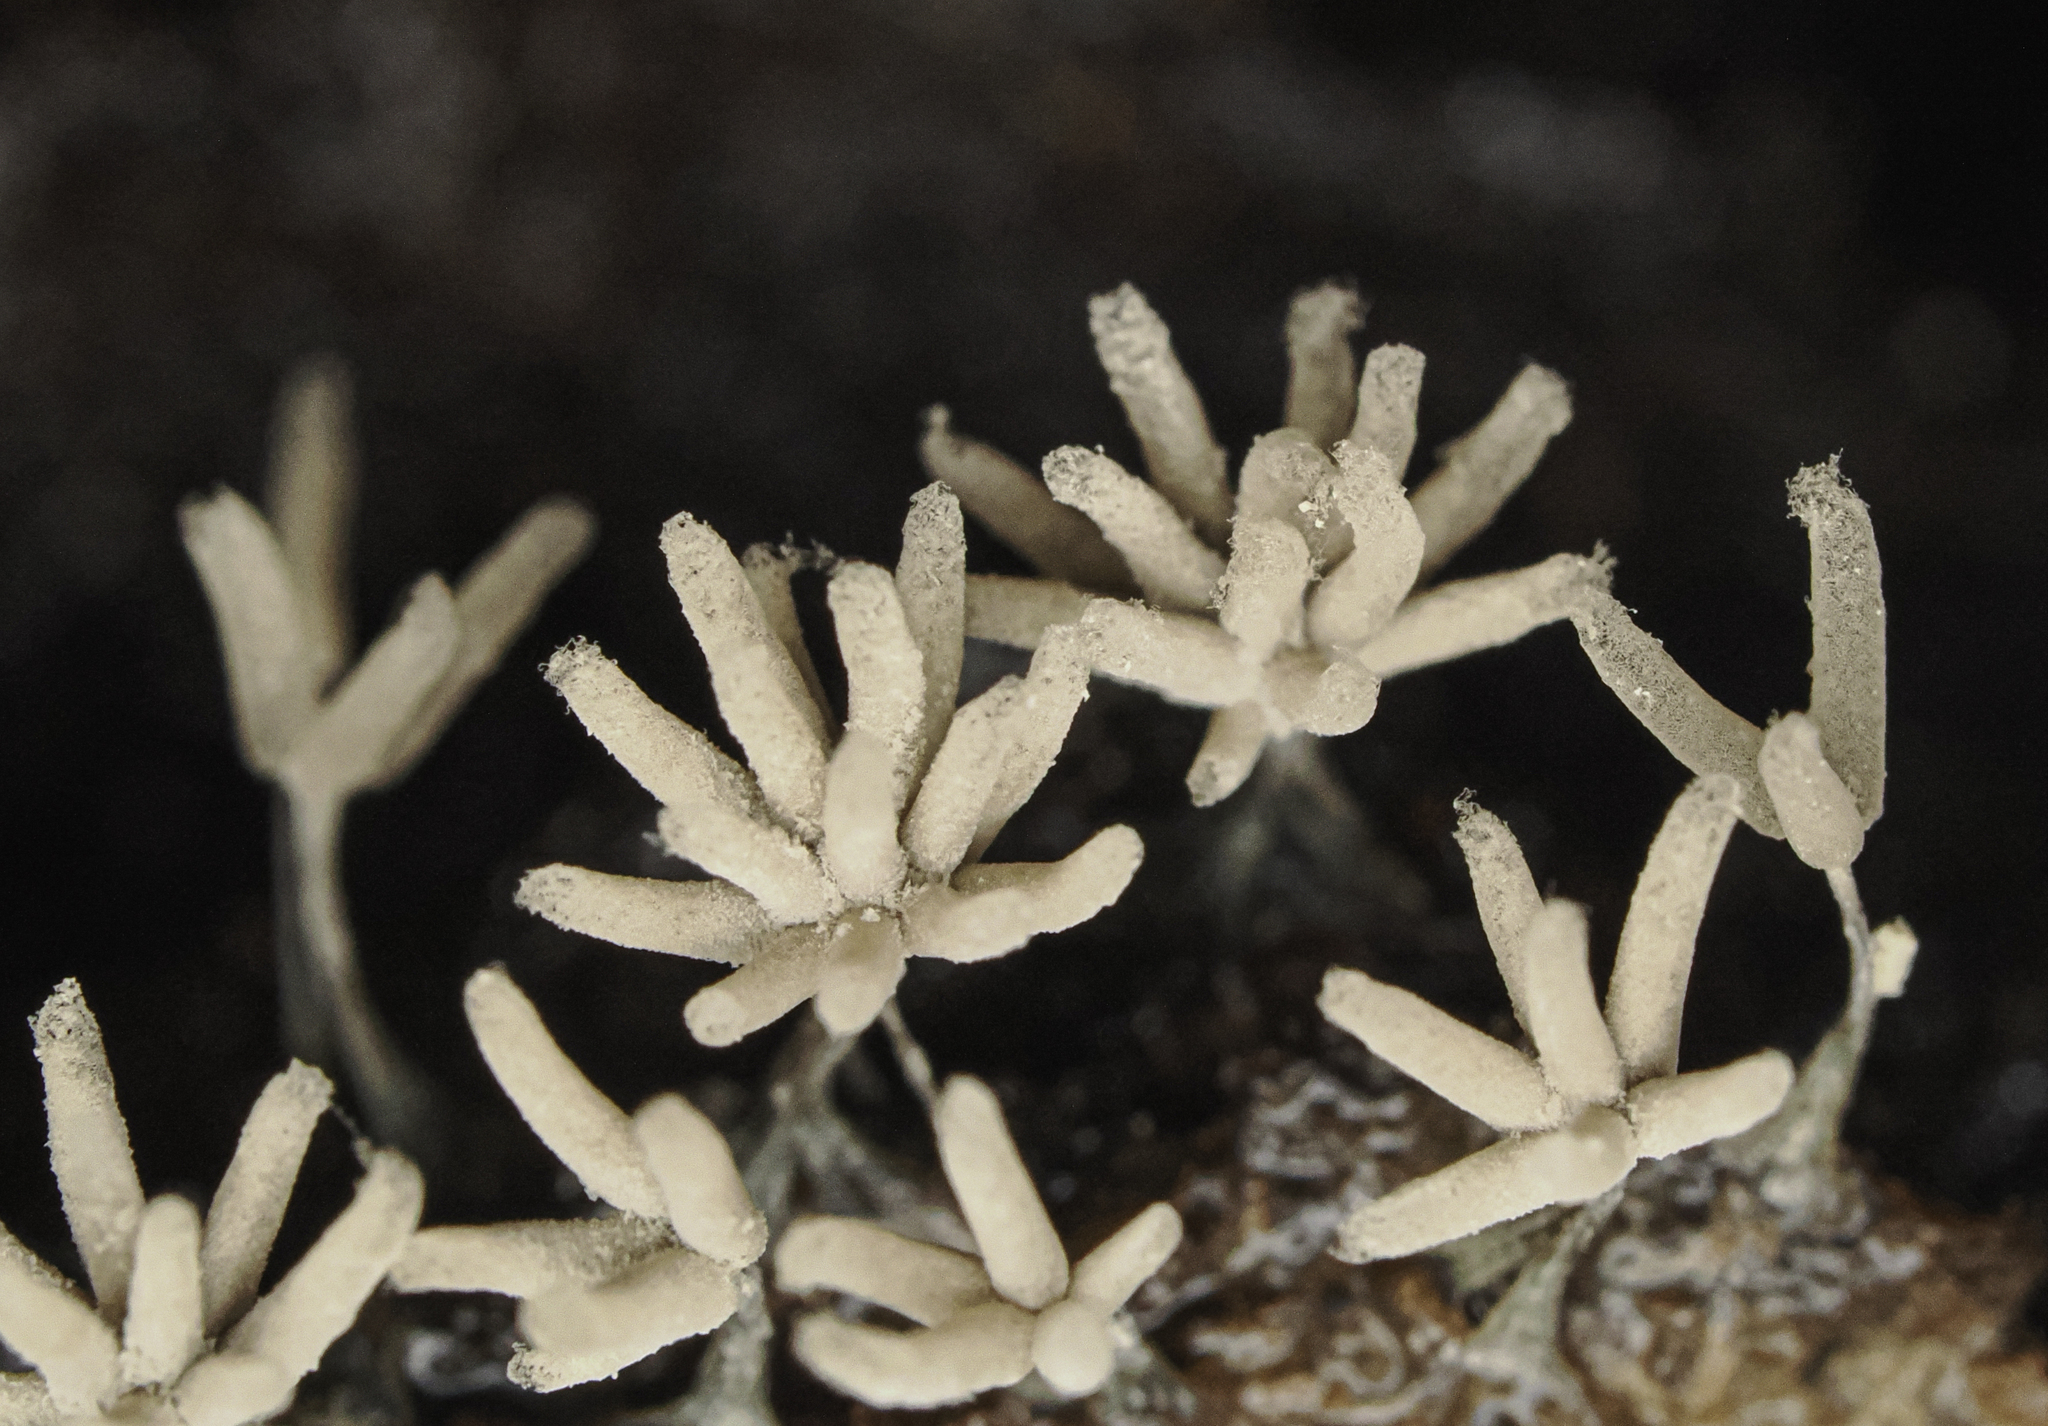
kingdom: Protozoa
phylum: Mycetozoa
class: Myxomycetes
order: Trichiales
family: Arcyriaceae
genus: Arcyria
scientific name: Arcyria cinerea
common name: White carnival candy slime mold
